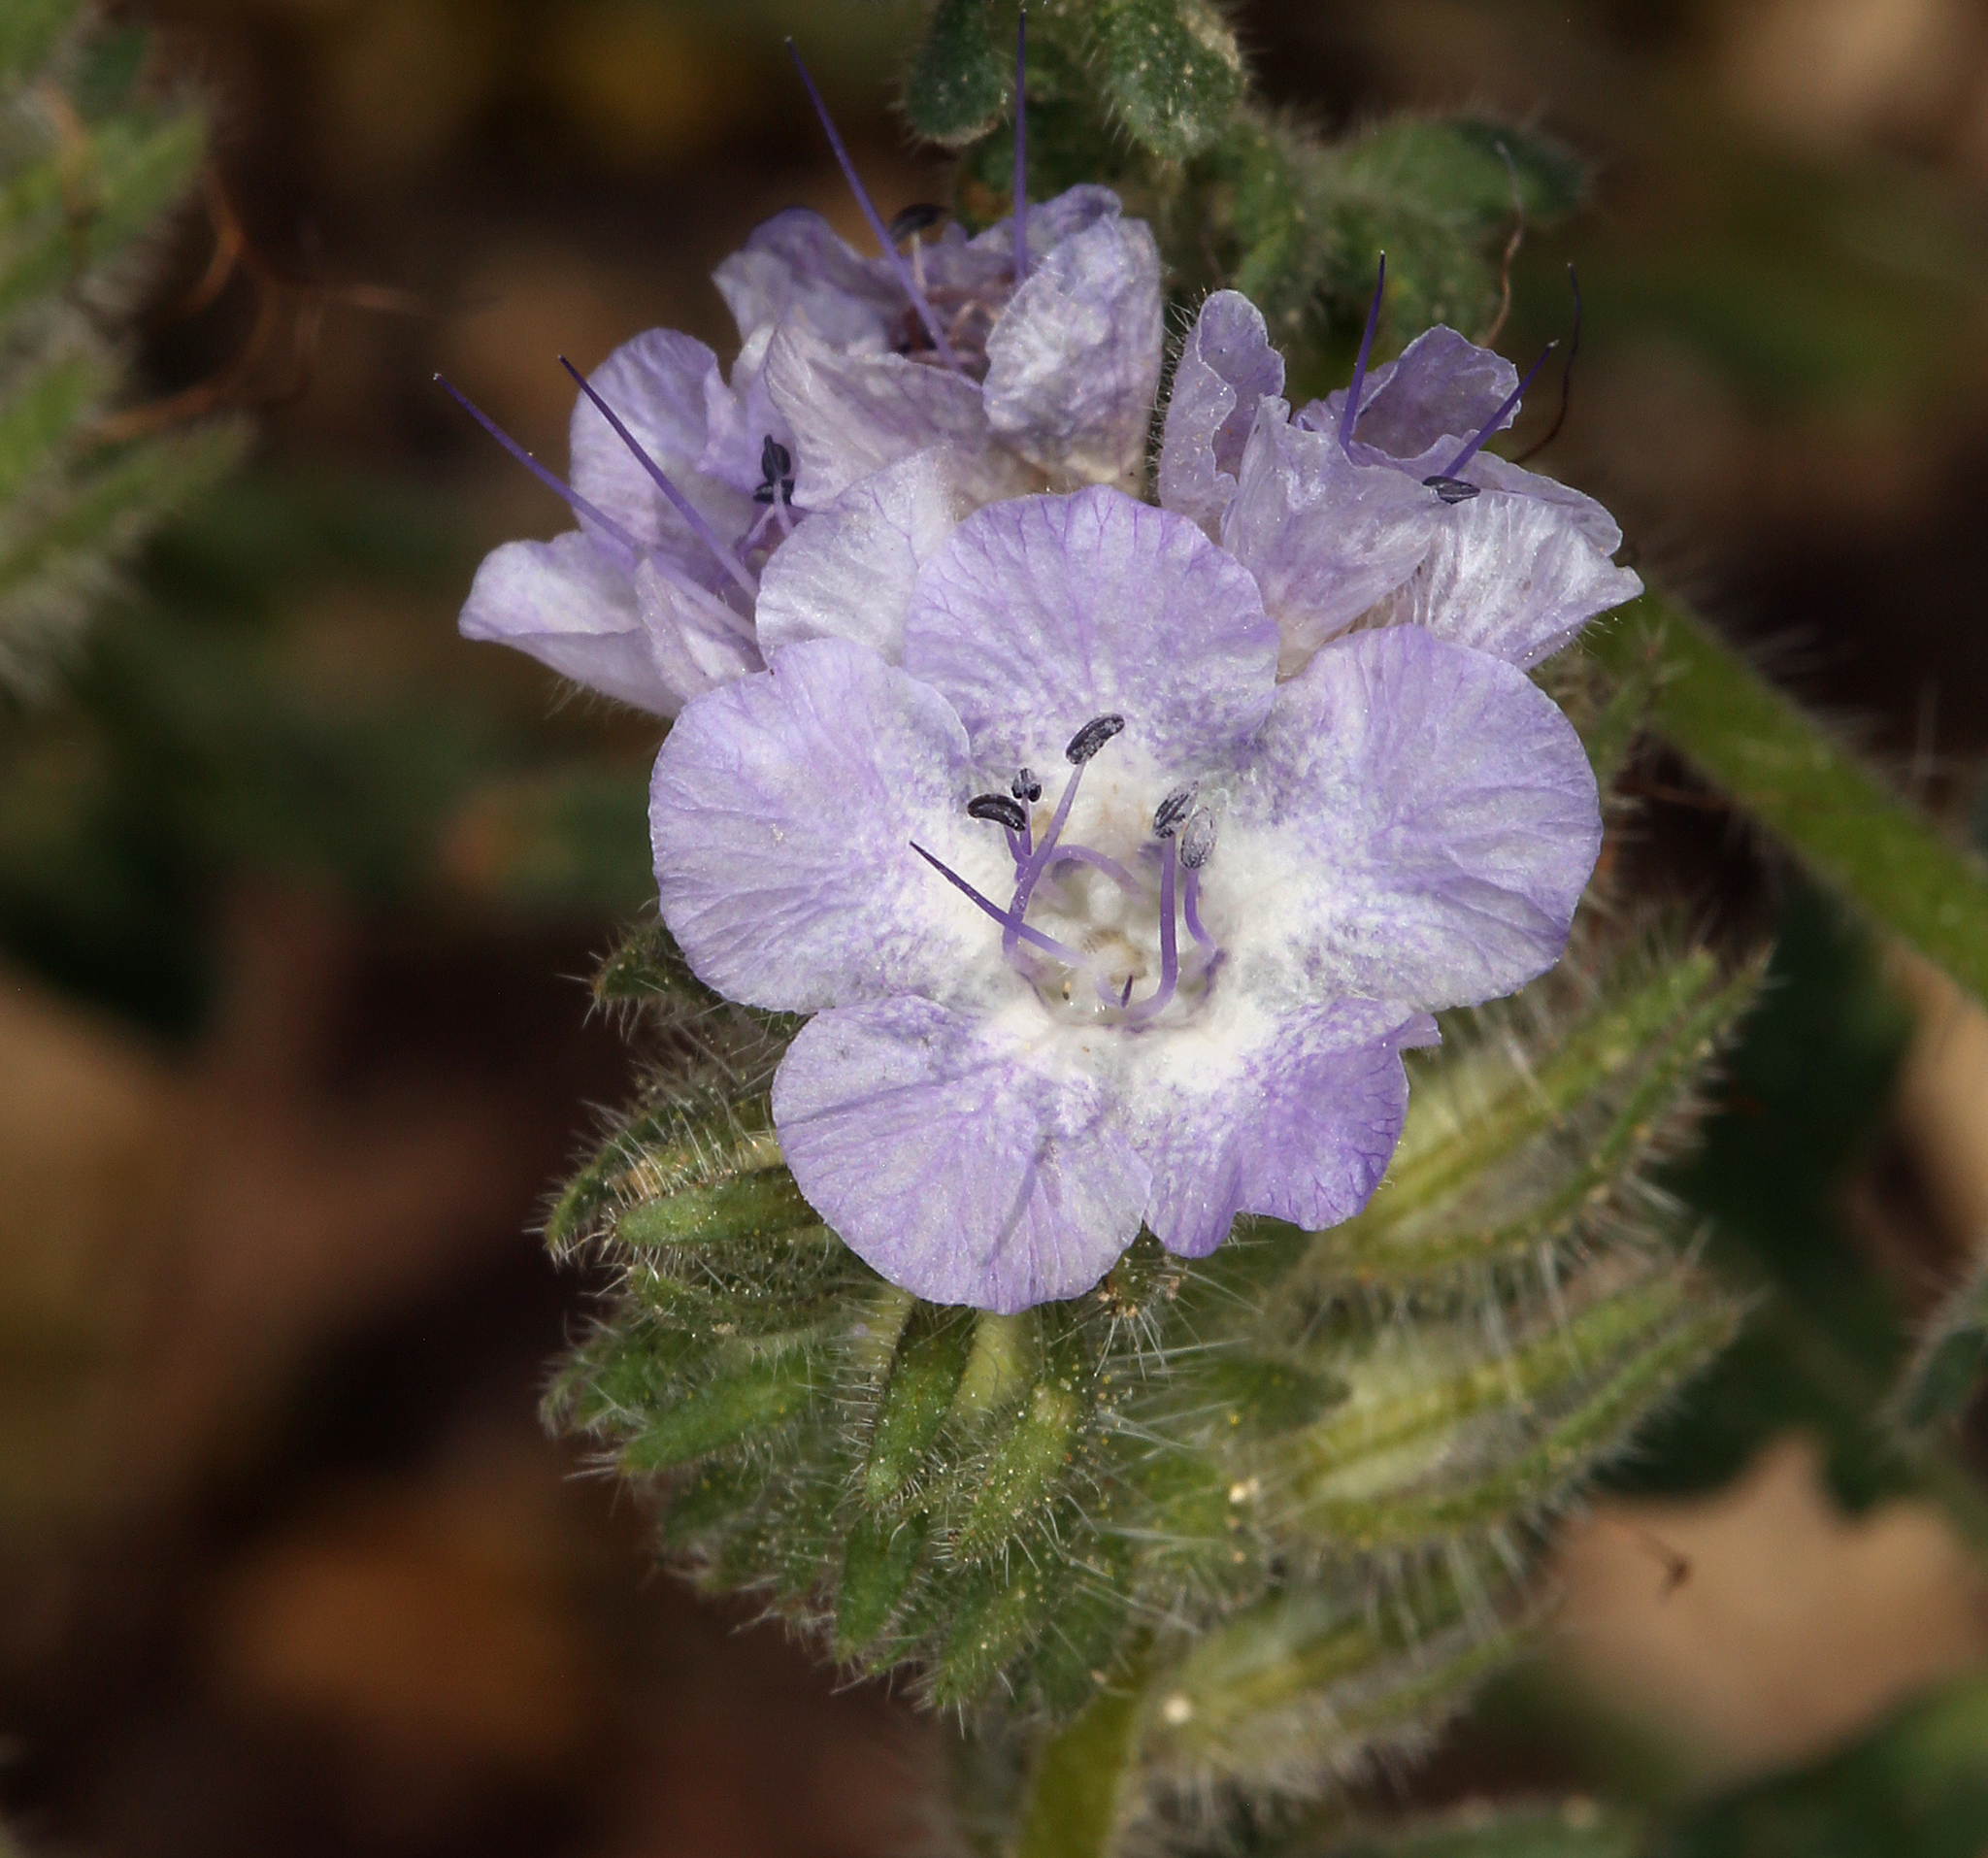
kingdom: Plantae
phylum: Tracheophyta
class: Magnoliopsida
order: Boraginales
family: Hydrophyllaceae
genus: Phacelia
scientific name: Phacelia vallis-mortae
